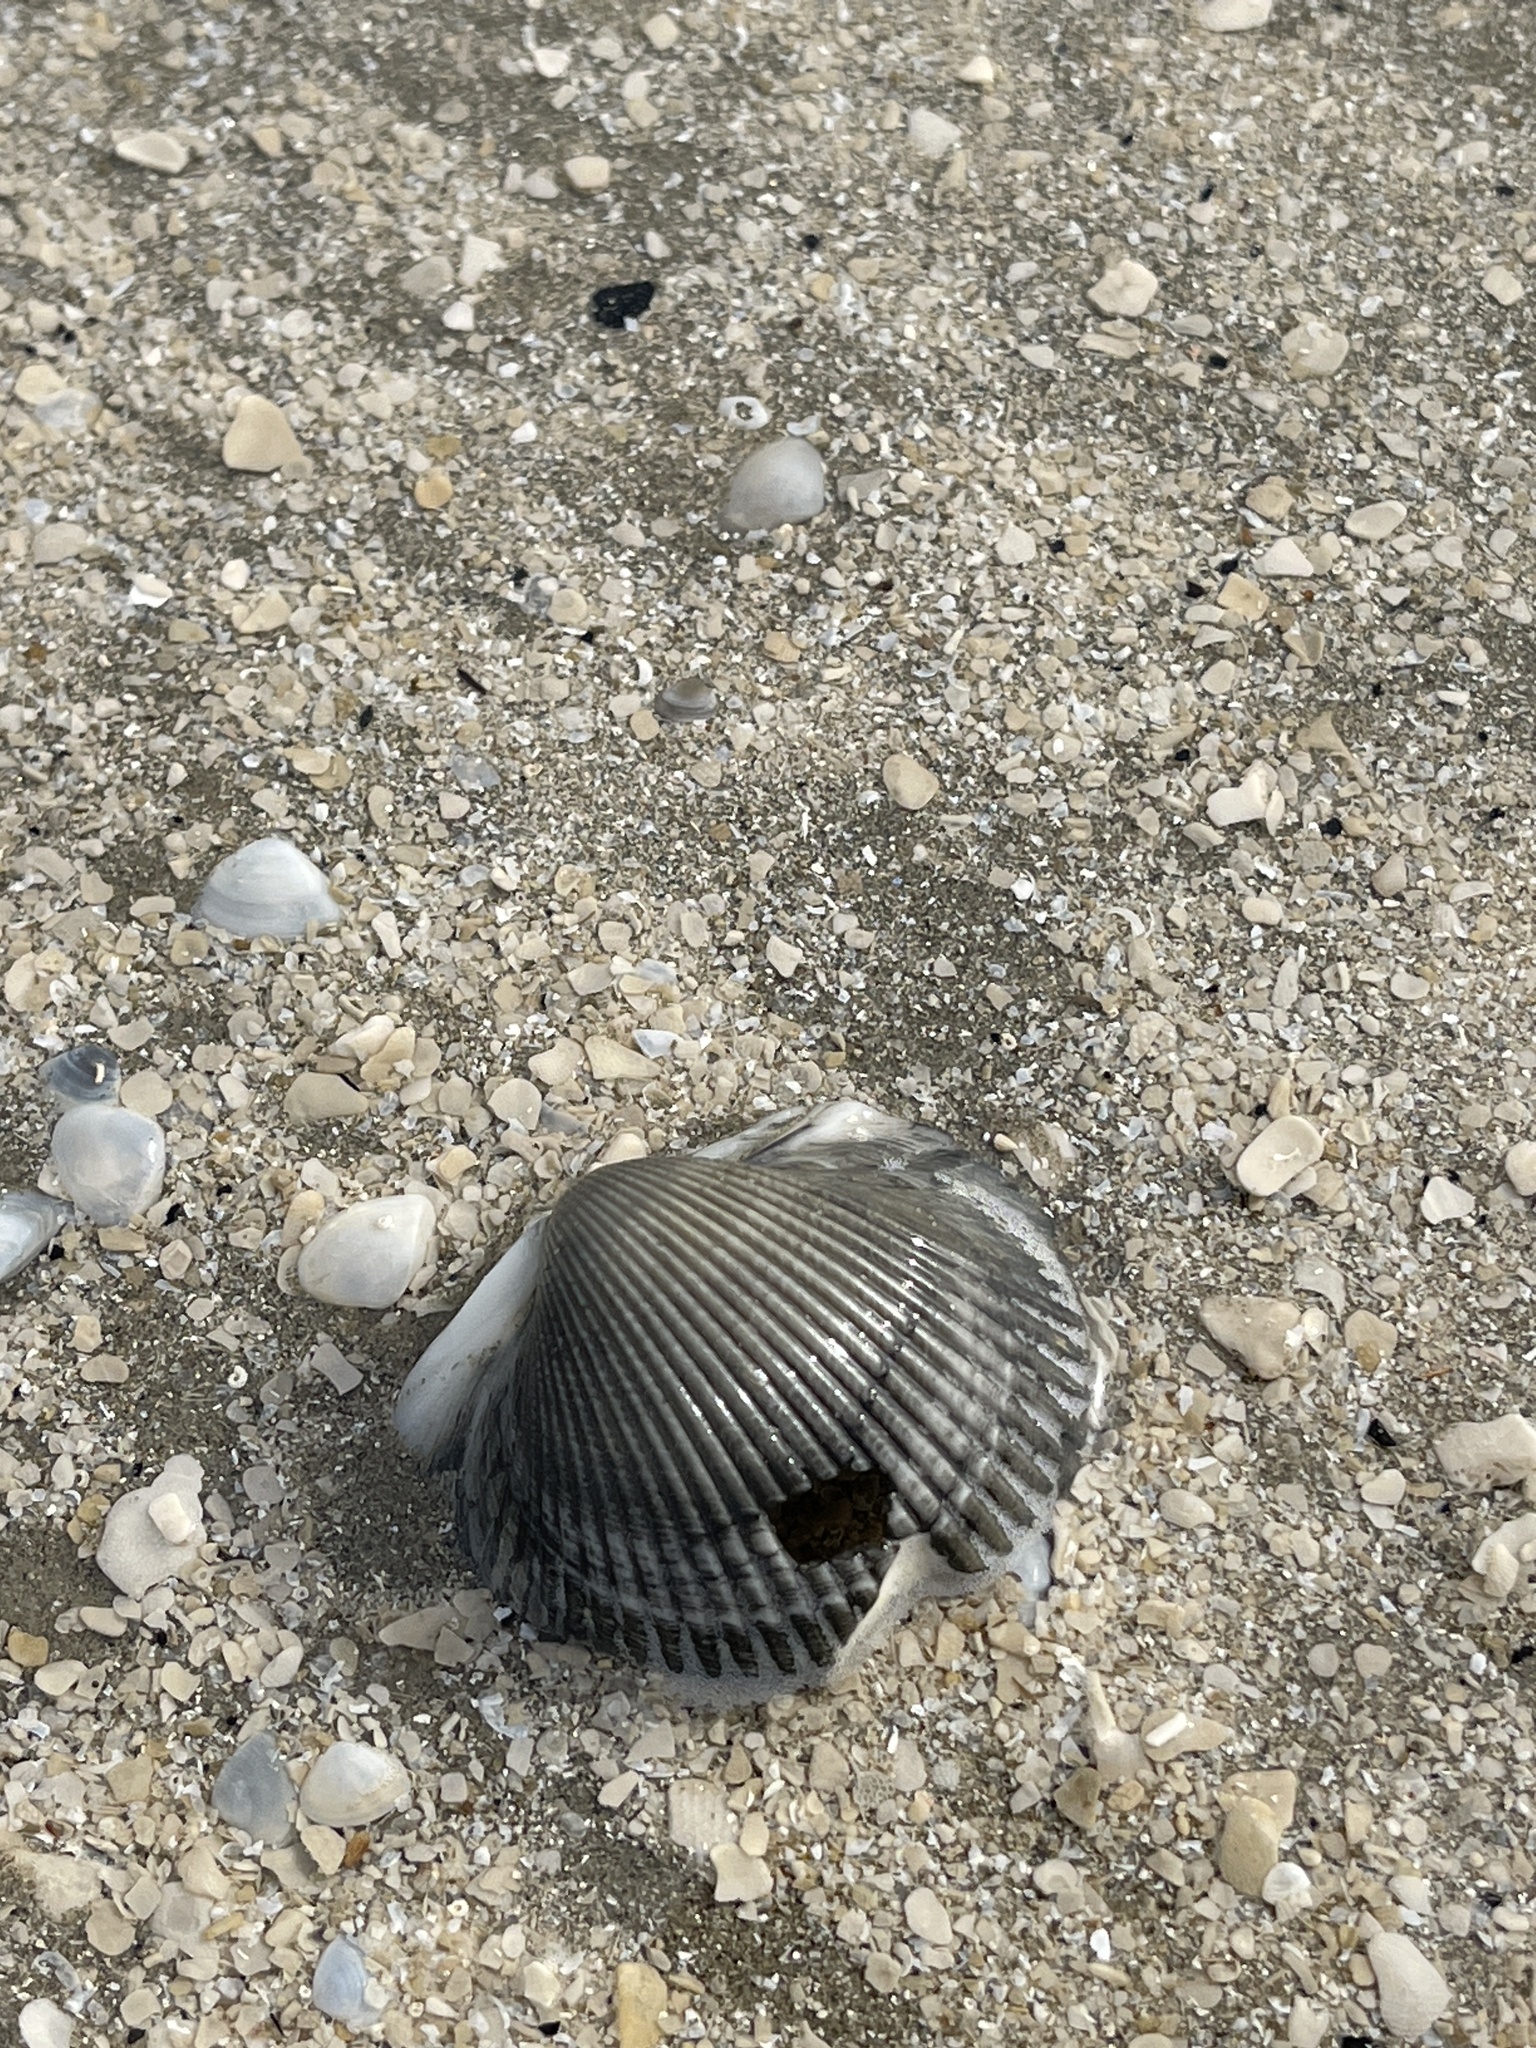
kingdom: Animalia
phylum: Mollusca
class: Bivalvia
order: Arcida
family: Arcidae
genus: Lunarca
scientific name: Lunarca ovalis
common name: Blood ark
